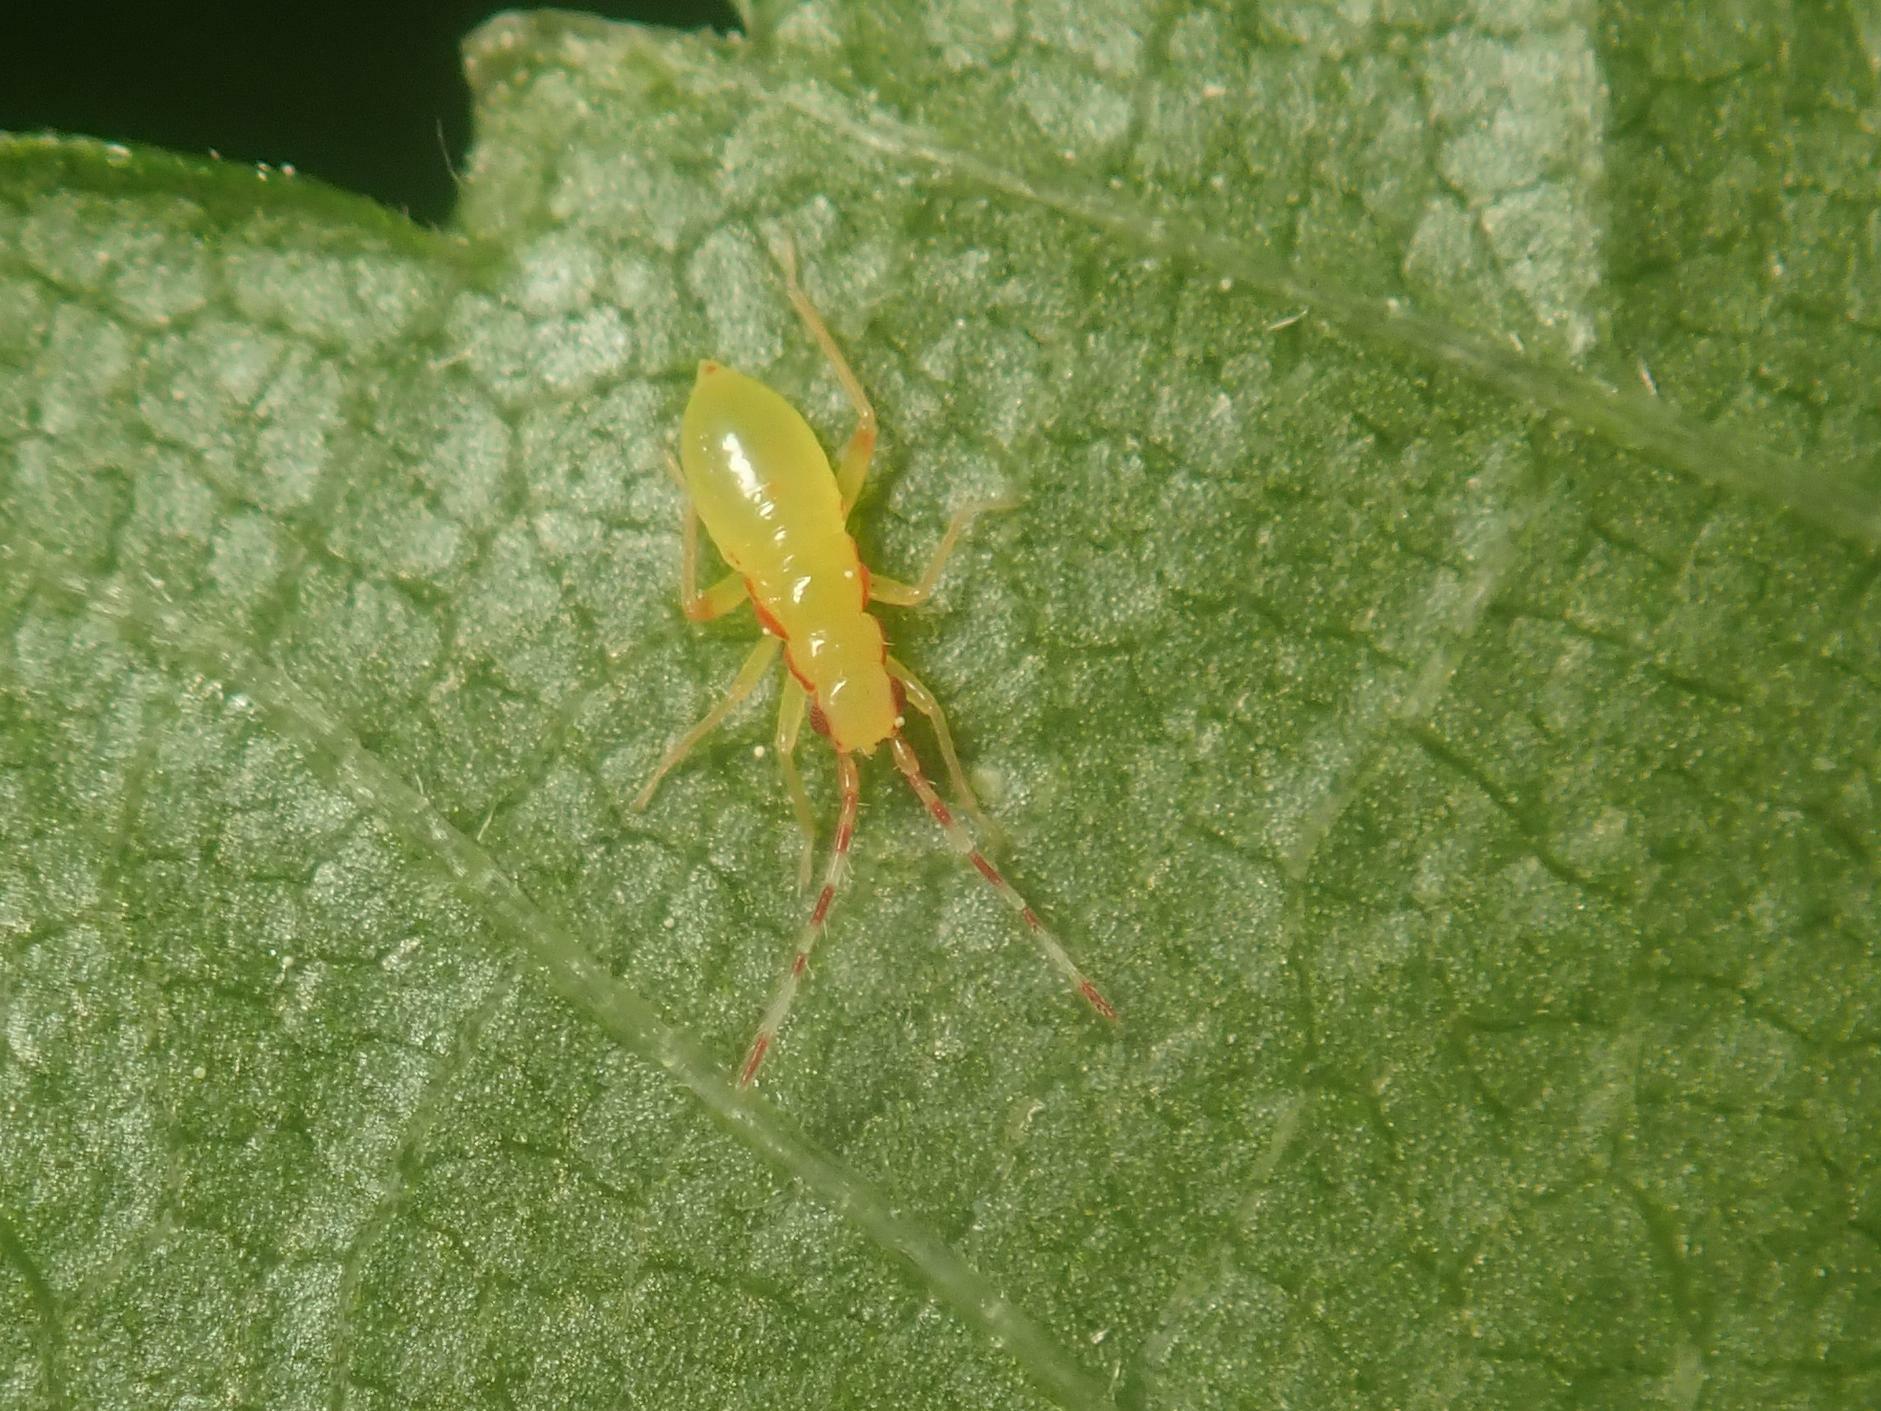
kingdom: Animalia
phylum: Arthropoda
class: Insecta
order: Hemiptera
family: Miridae
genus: Campyloneura
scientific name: Campyloneura virgula
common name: Predatory bug
